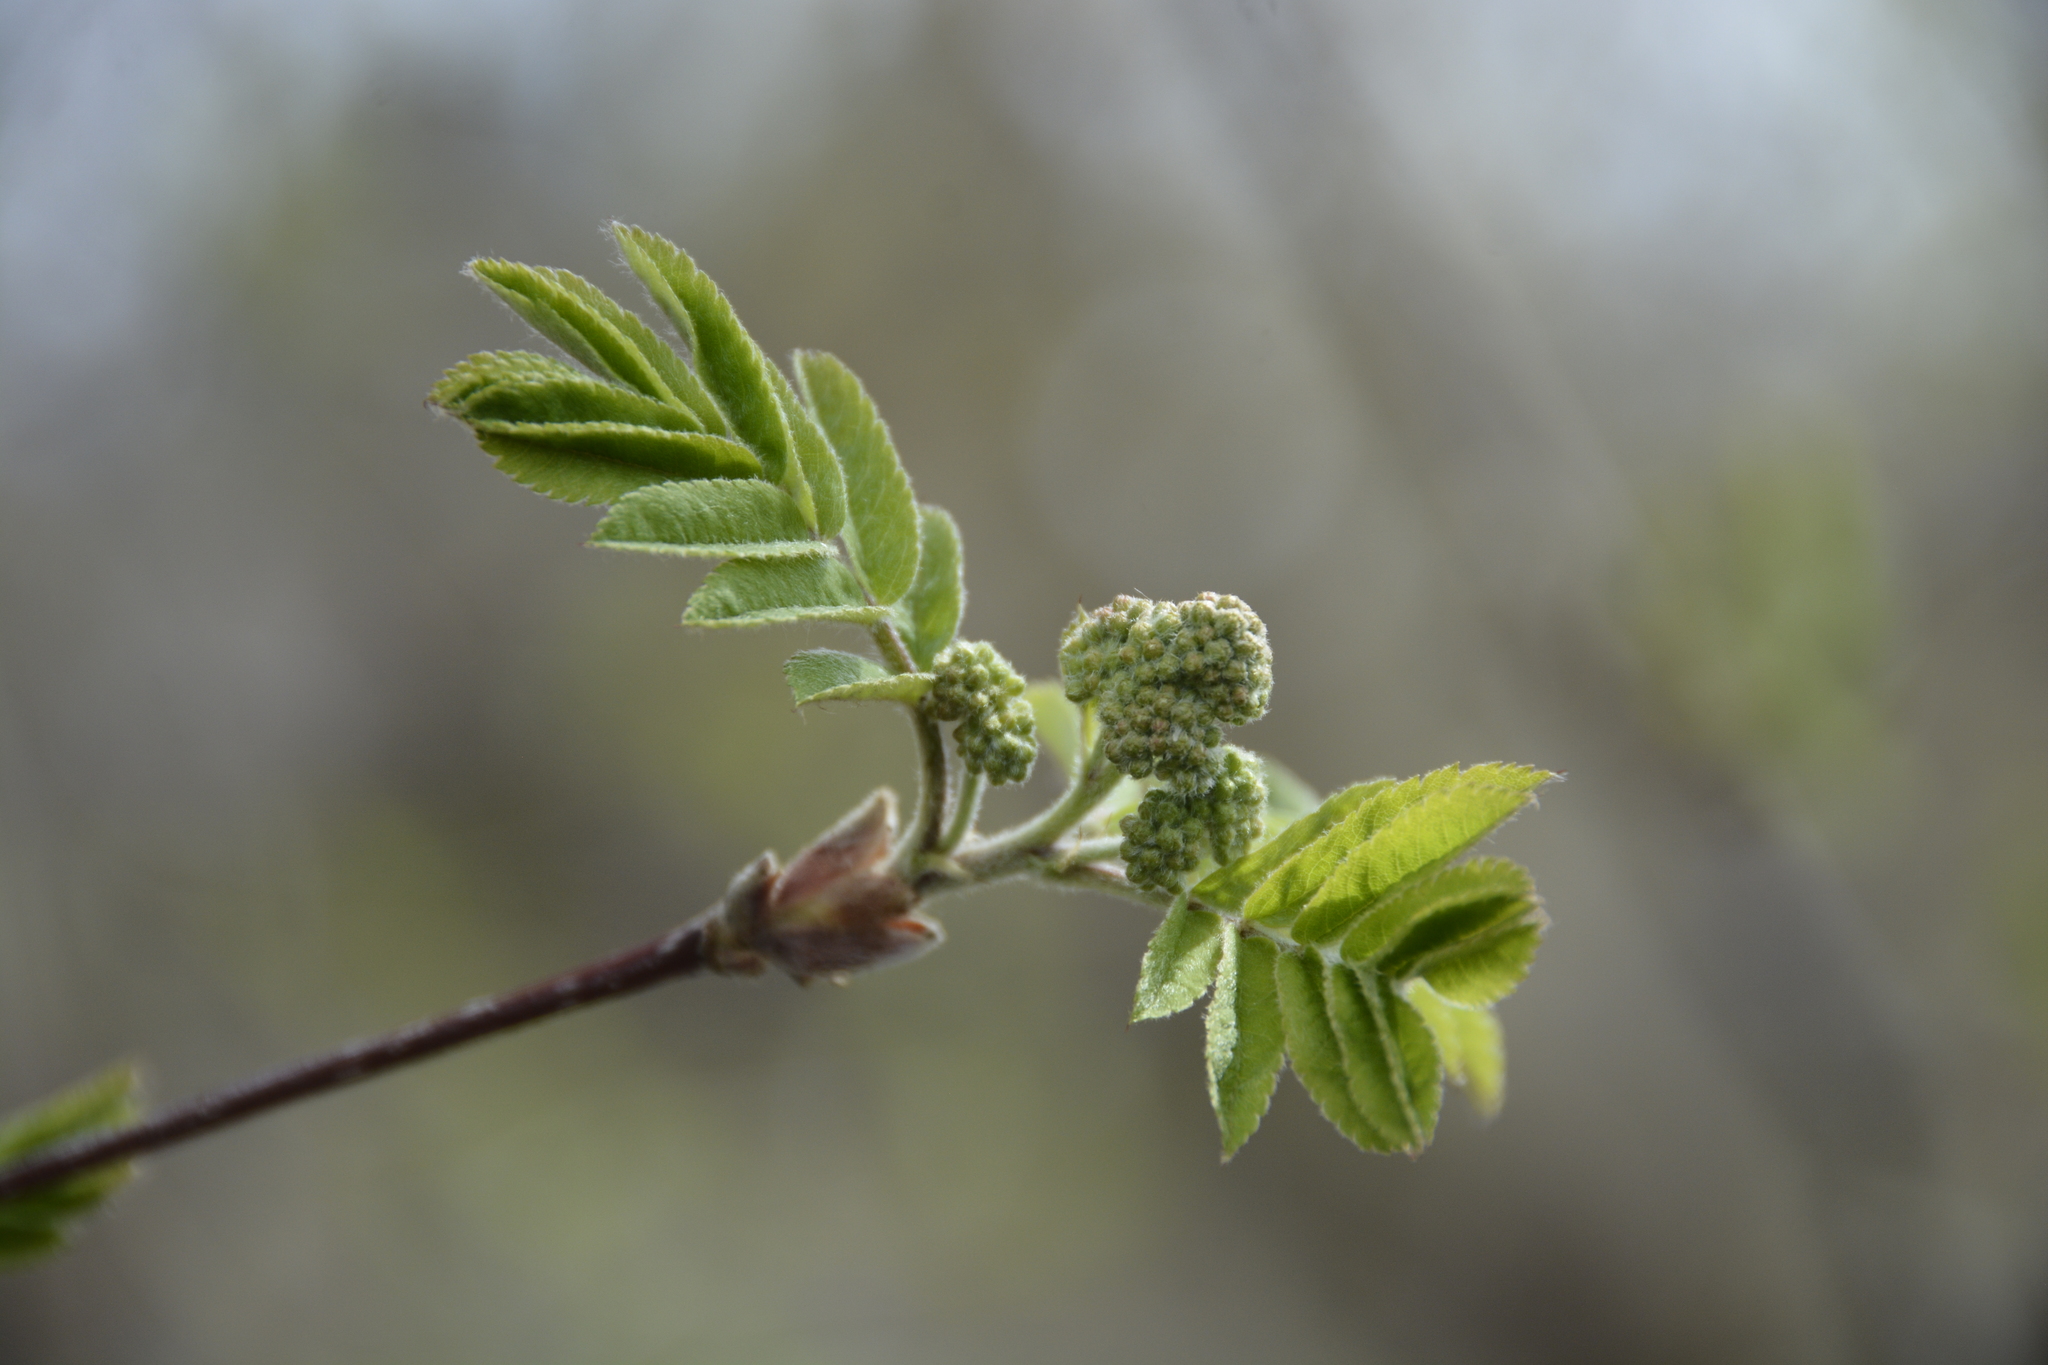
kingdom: Plantae
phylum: Tracheophyta
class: Magnoliopsida
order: Rosales
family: Rosaceae
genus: Sorbus
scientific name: Sorbus scopulina
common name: Greene's mountain-ash
